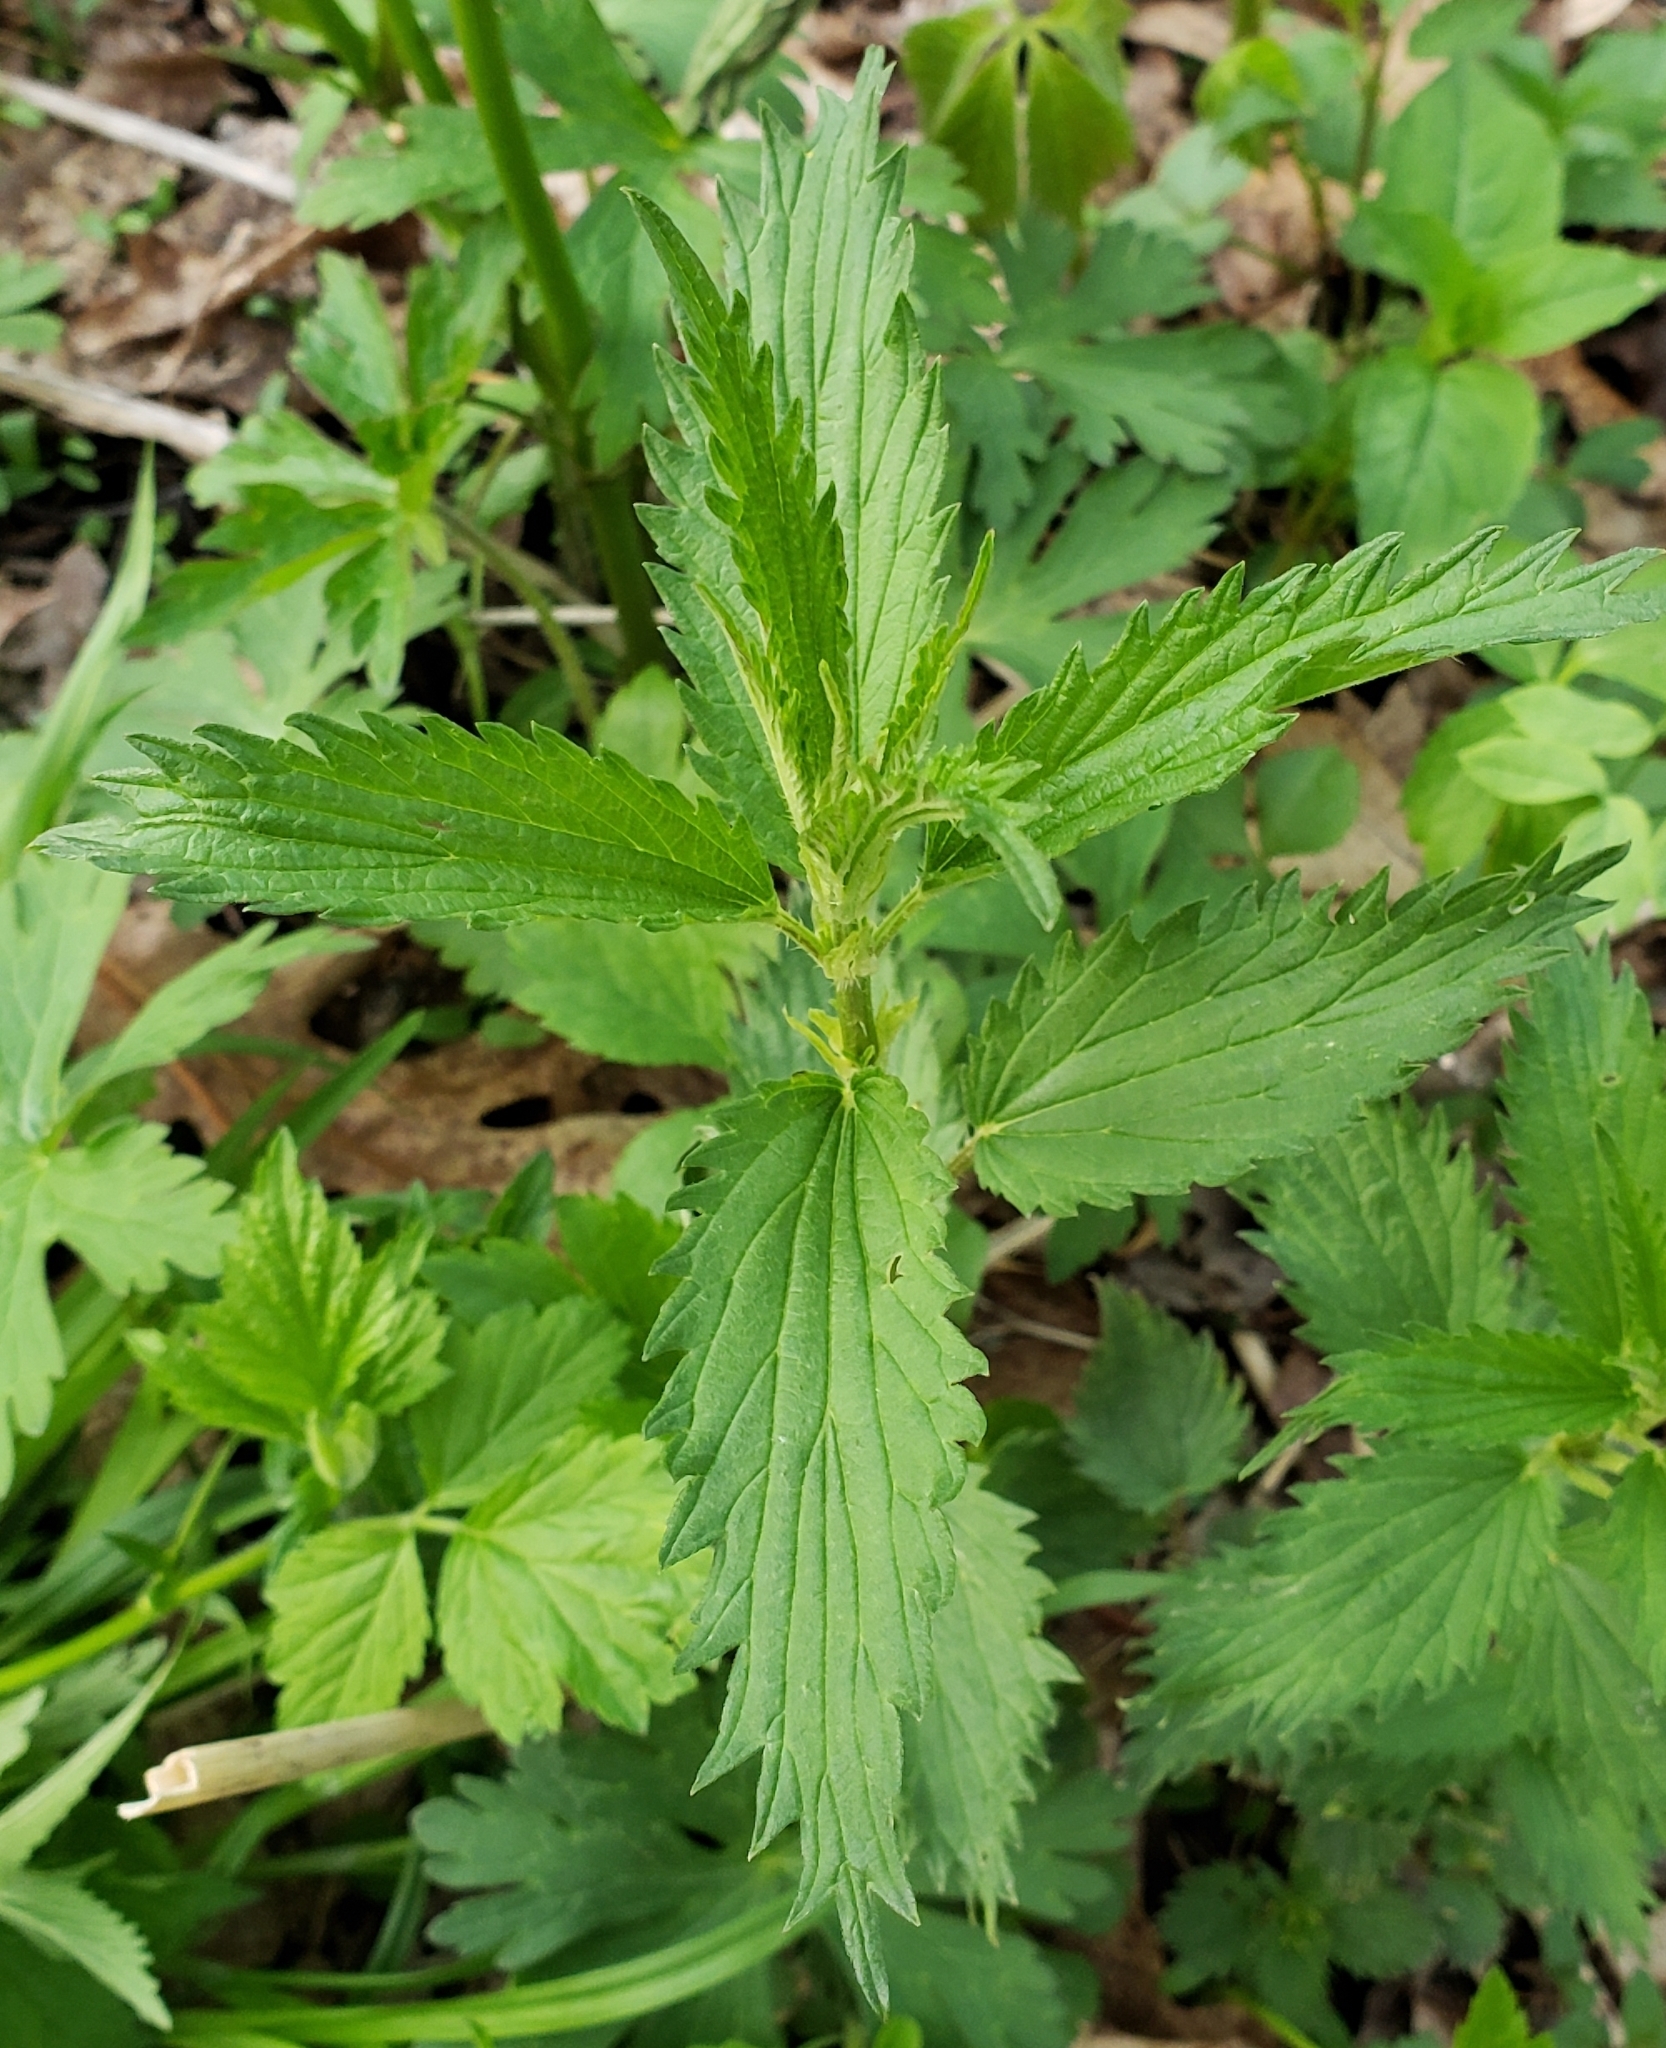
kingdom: Plantae
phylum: Tracheophyta
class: Magnoliopsida
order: Rosales
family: Urticaceae
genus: Urtica
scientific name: Urtica dioica
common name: Common nettle
